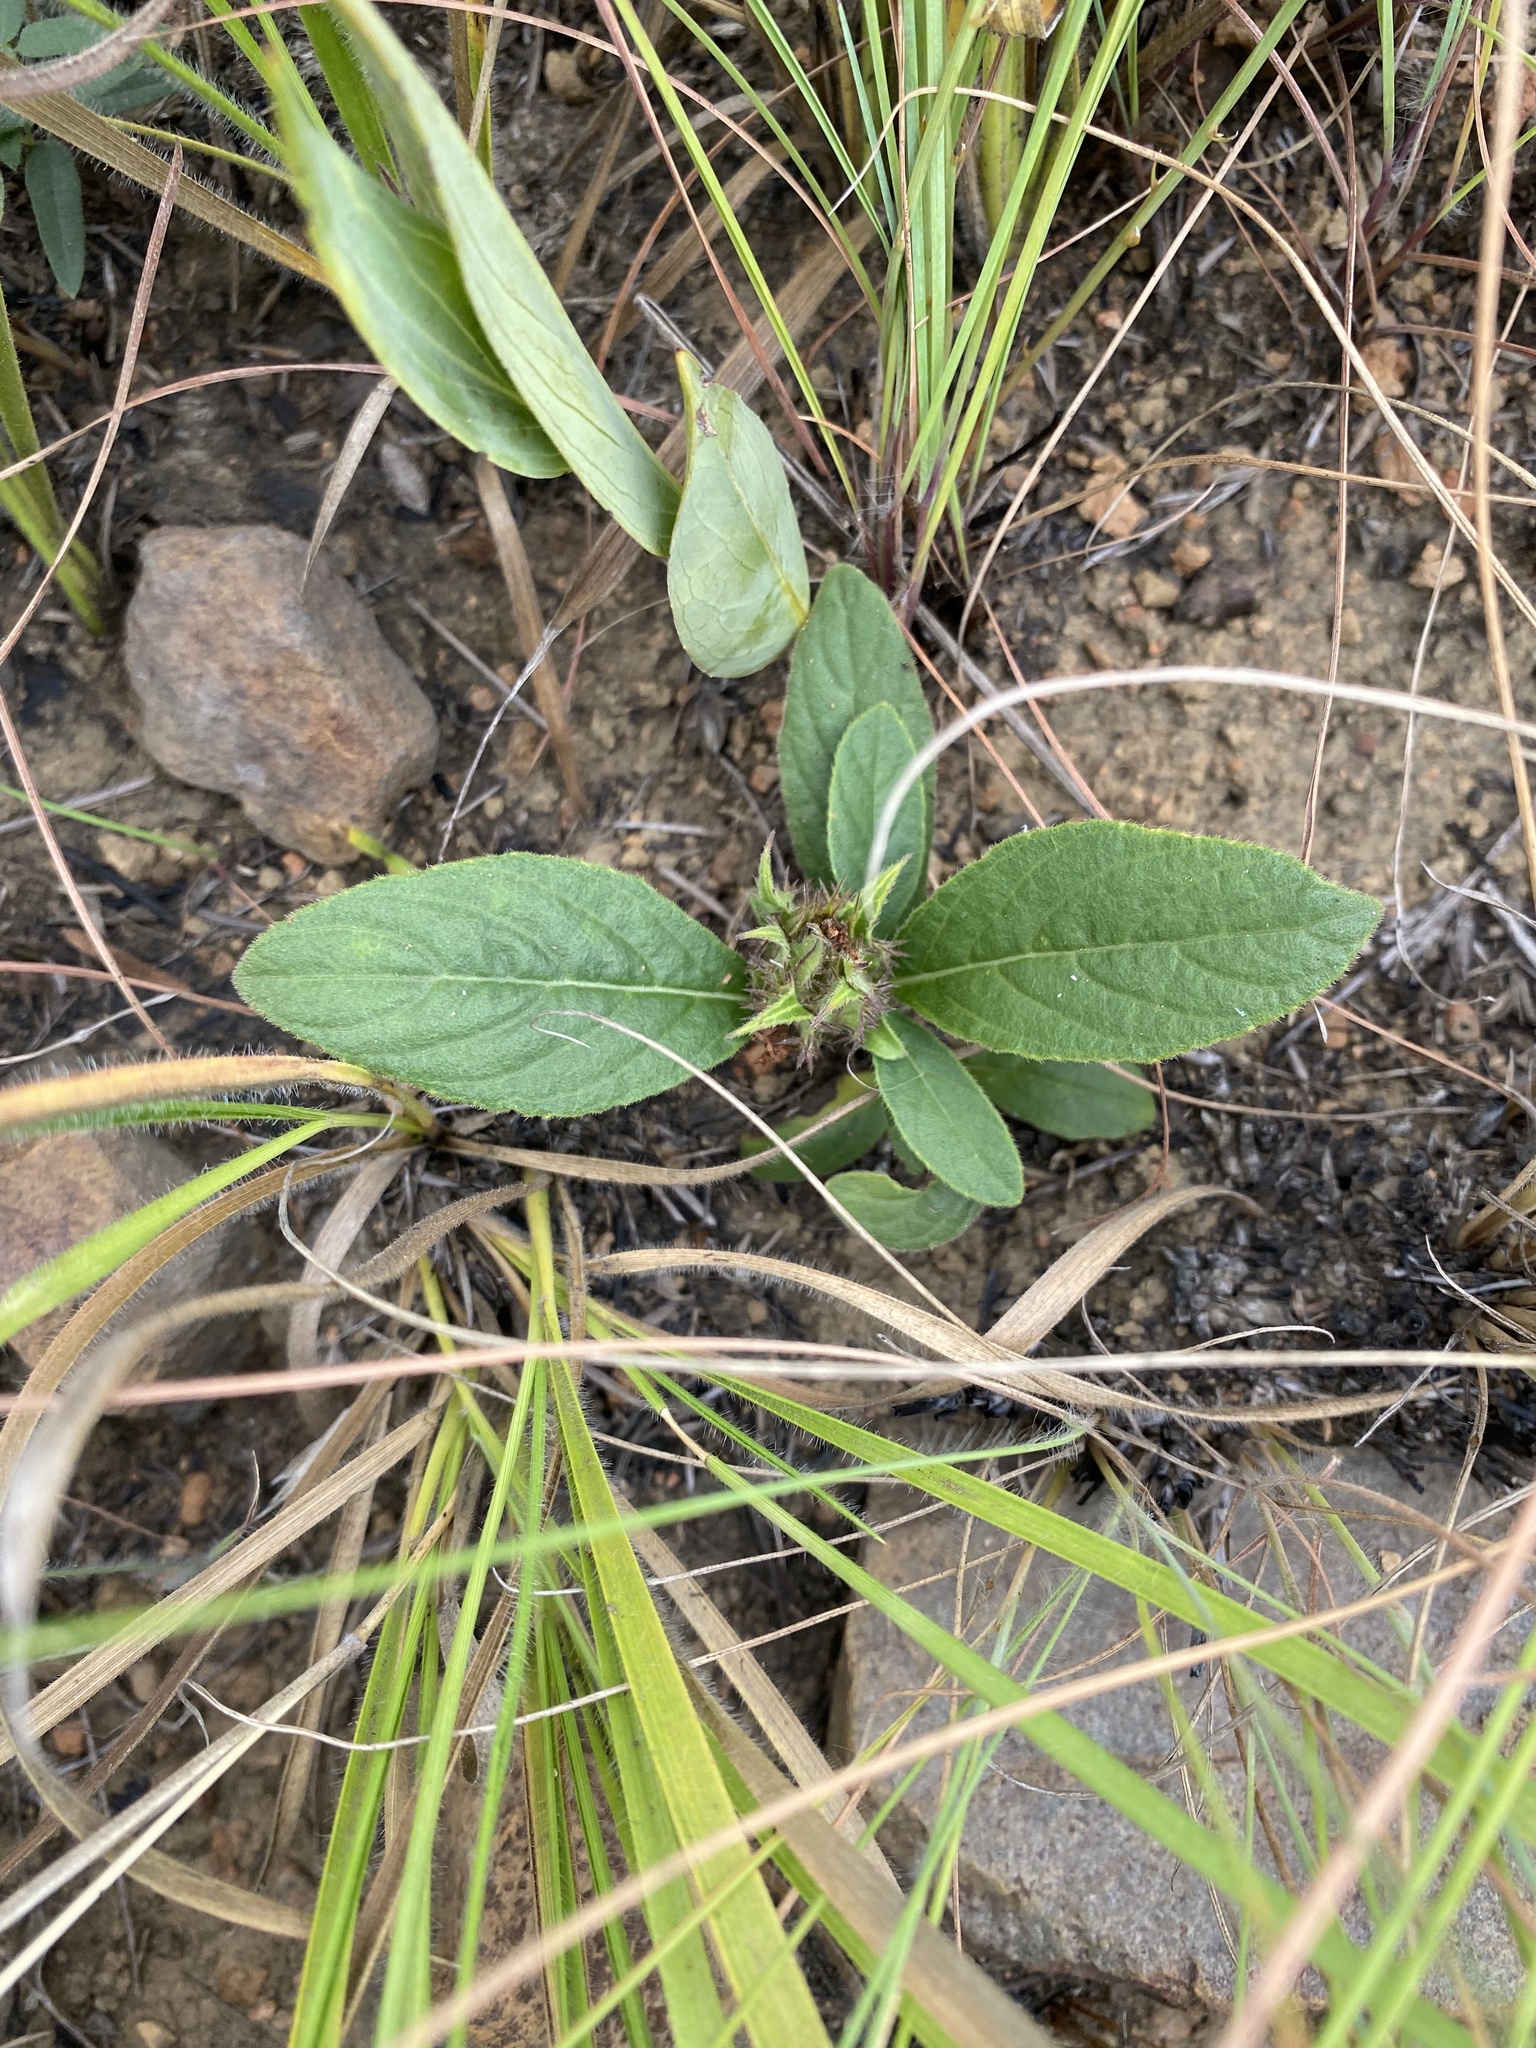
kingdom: Plantae
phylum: Tracheophyta
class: Magnoliopsida
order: Lamiales
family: Acanthaceae
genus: Crabbea
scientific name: Crabbea nana
